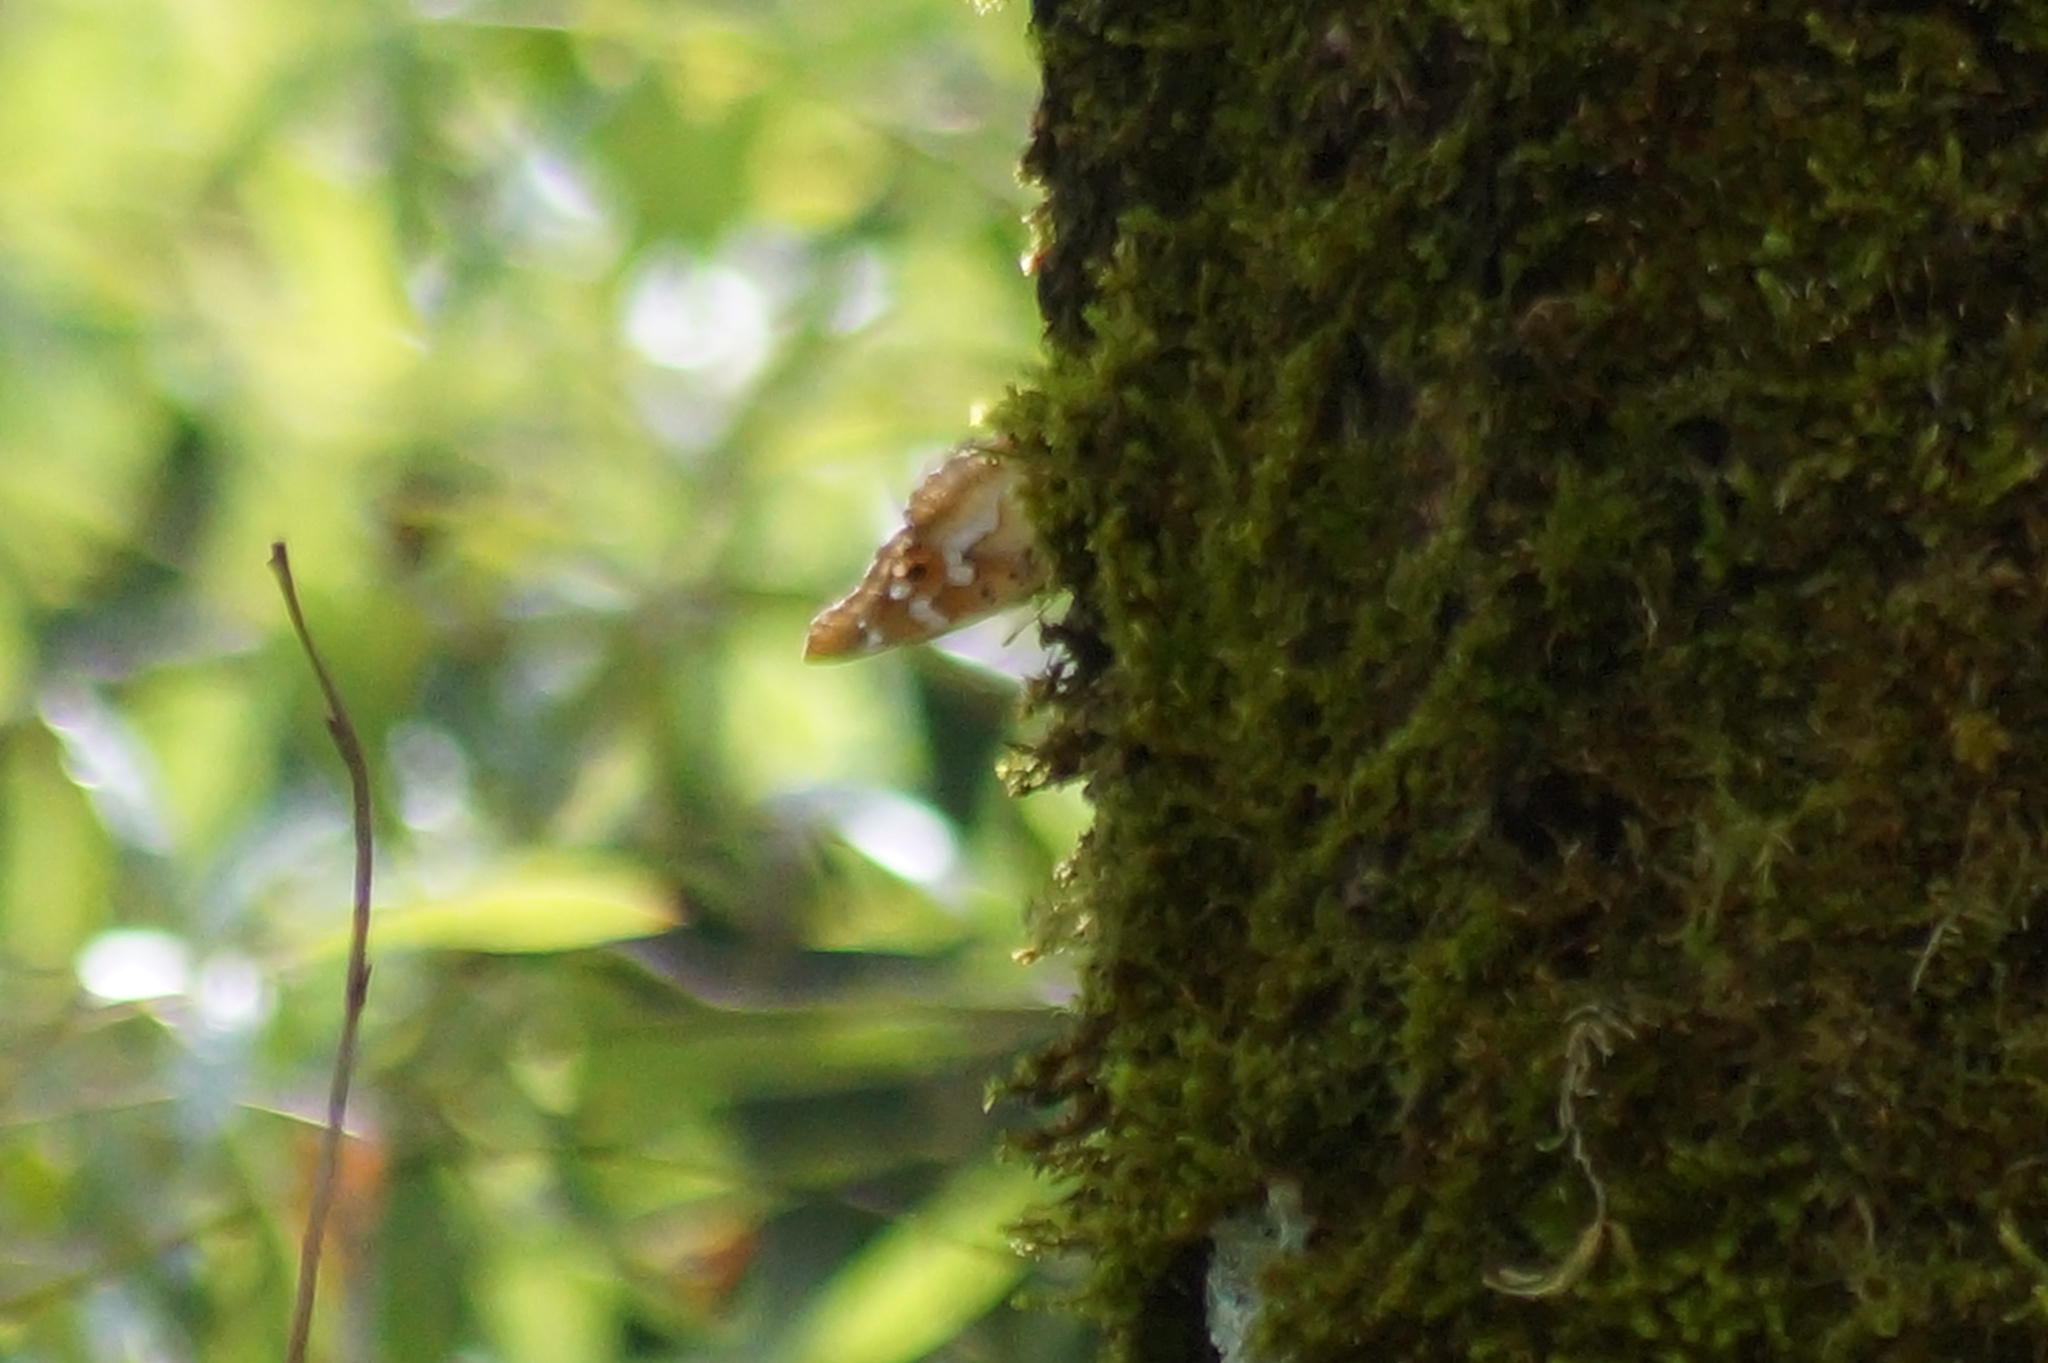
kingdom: Animalia
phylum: Arthropoda
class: Insecta
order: Lepidoptera
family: Nymphalidae
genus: Apatura
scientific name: Apatura ilia
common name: Lesser purple emperor
